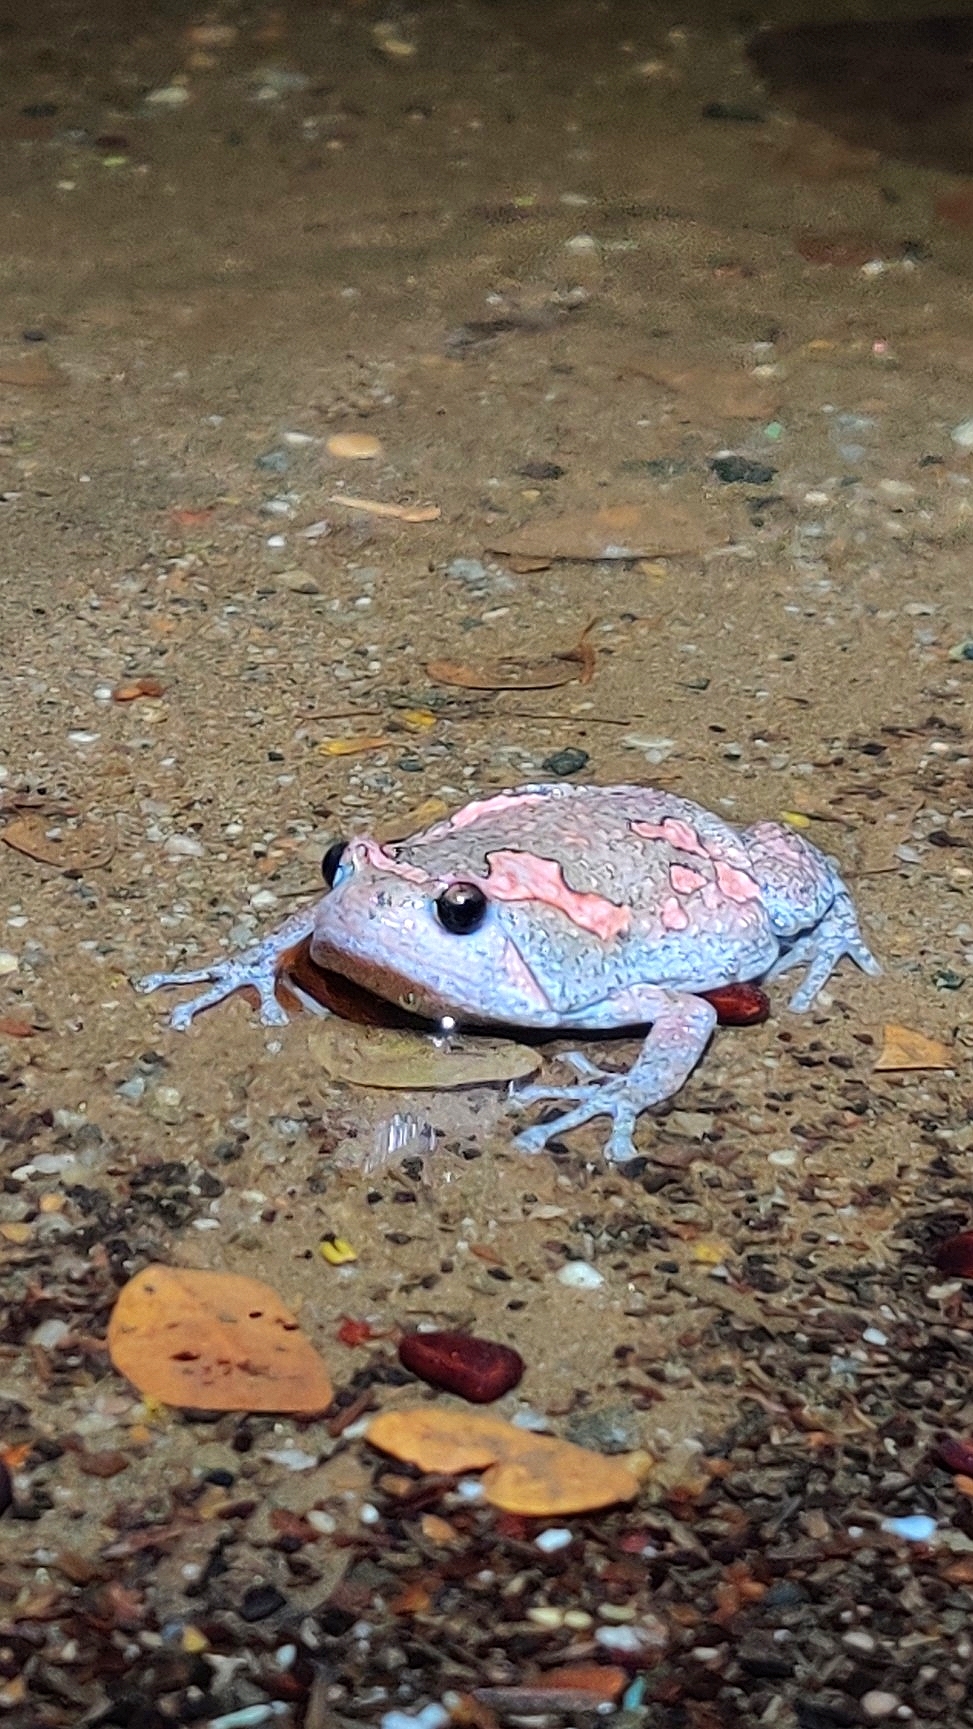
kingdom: Animalia
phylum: Chordata
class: Amphibia
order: Anura
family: Microhylidae
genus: Uperodon
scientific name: Uperodon taprobanicus
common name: Ceylon kaloula
